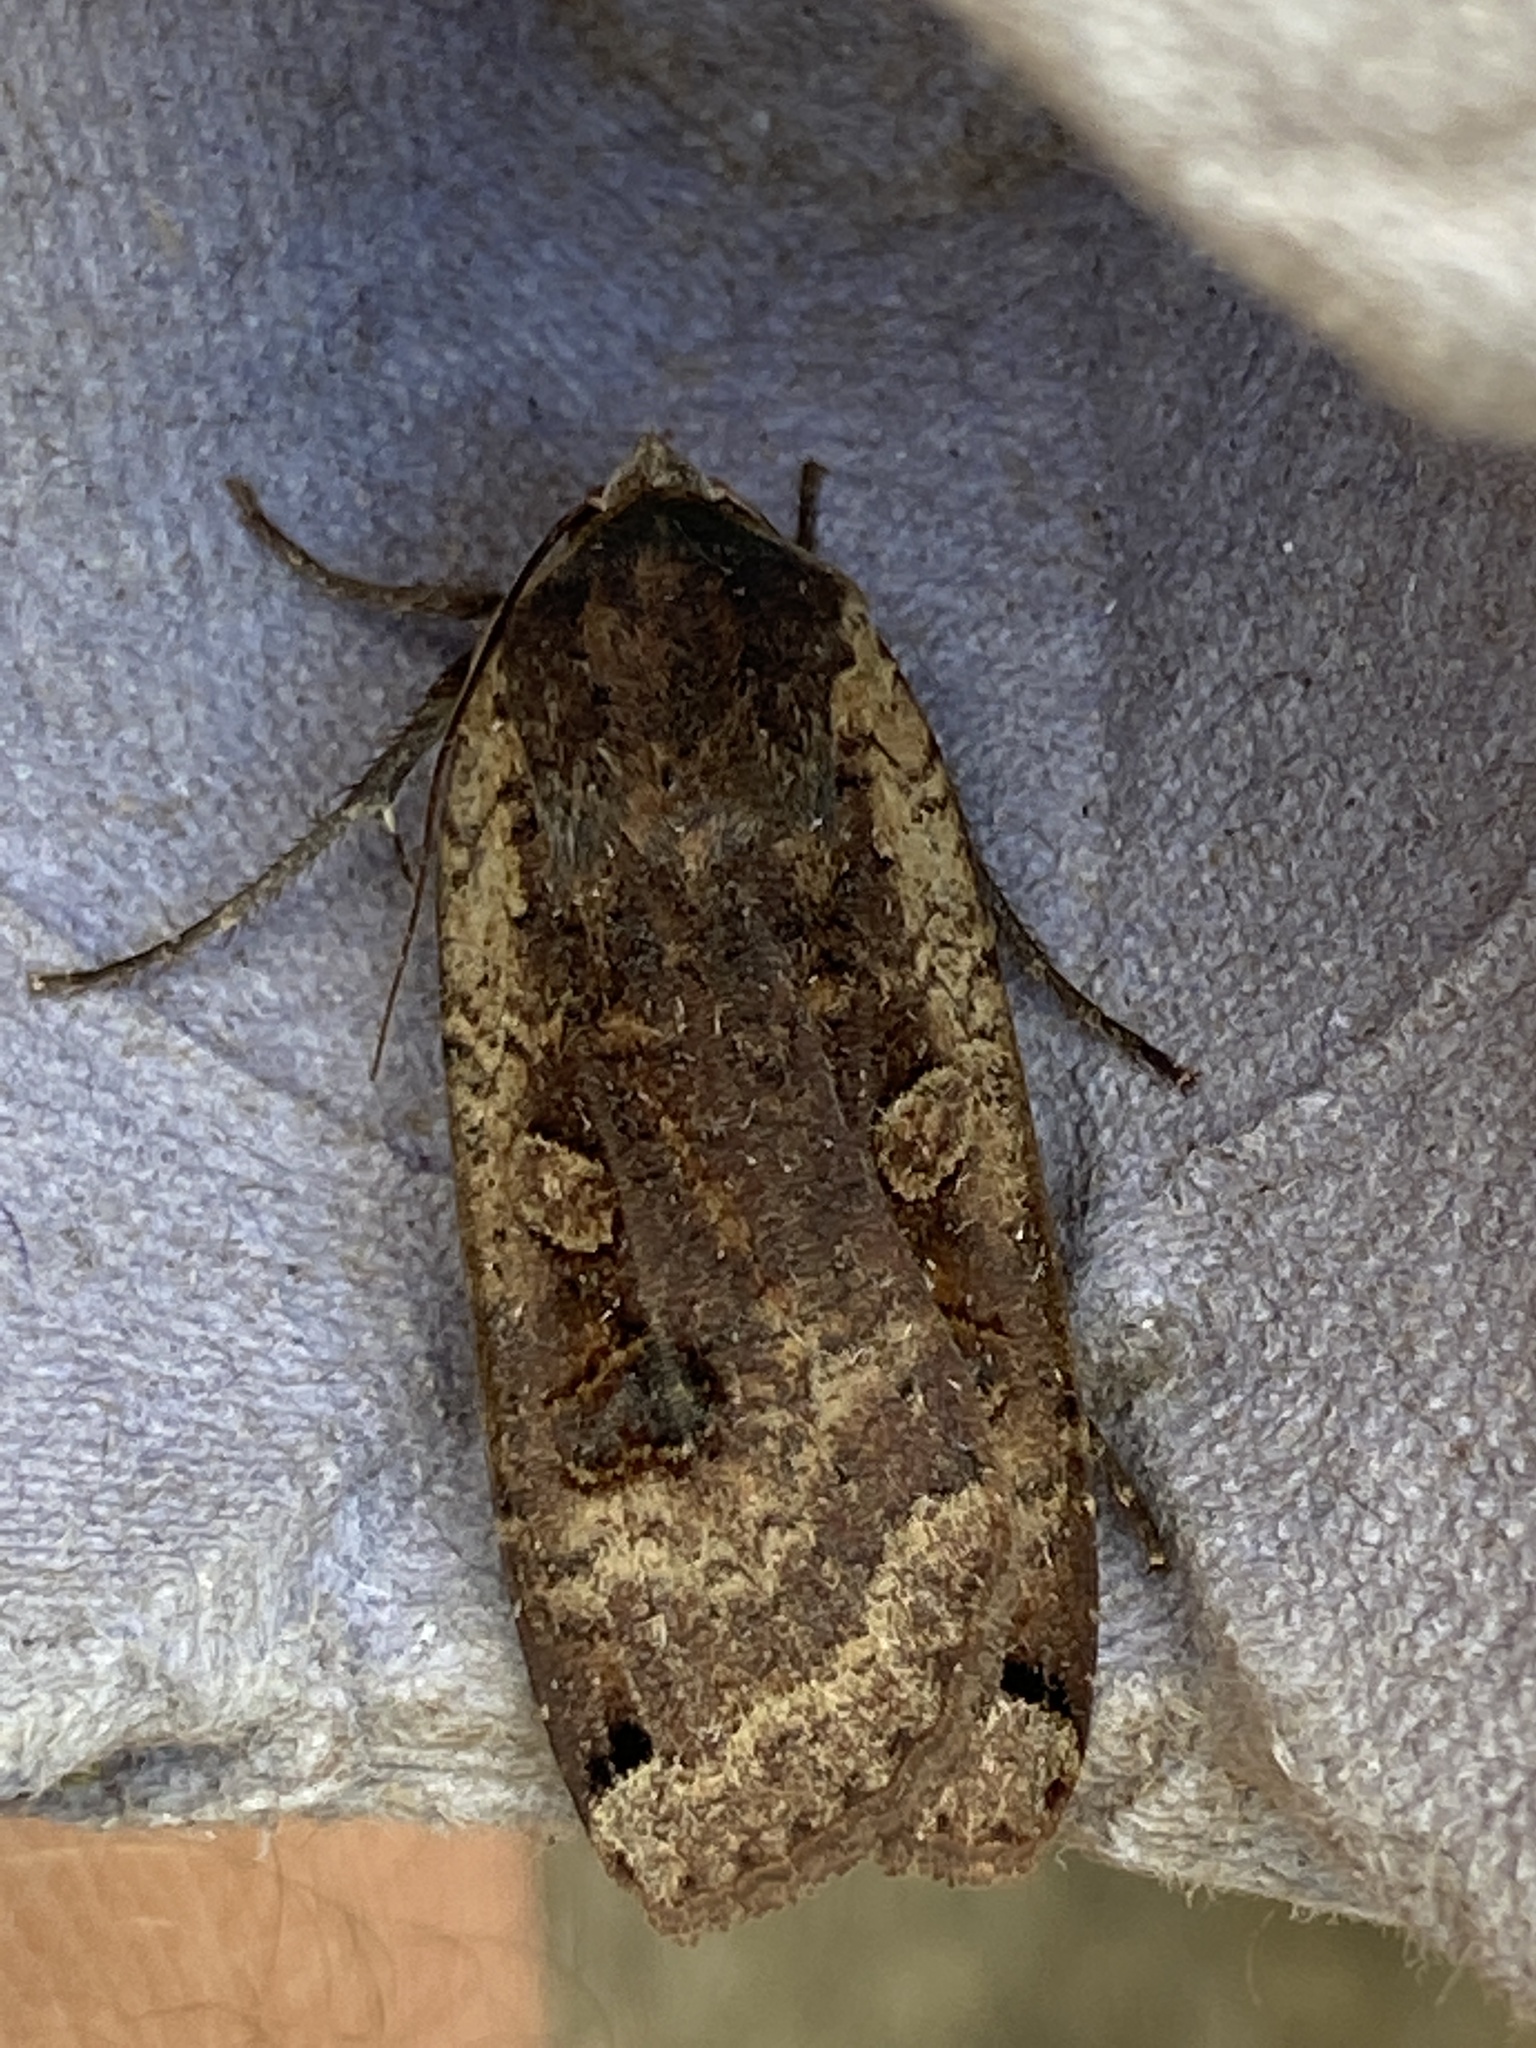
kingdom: Animalia
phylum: Arthropoda
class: Insecta
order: Lepidoptera
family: Noctuidae
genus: Noctua
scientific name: Noctua pronuba
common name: Large yellow underwing
